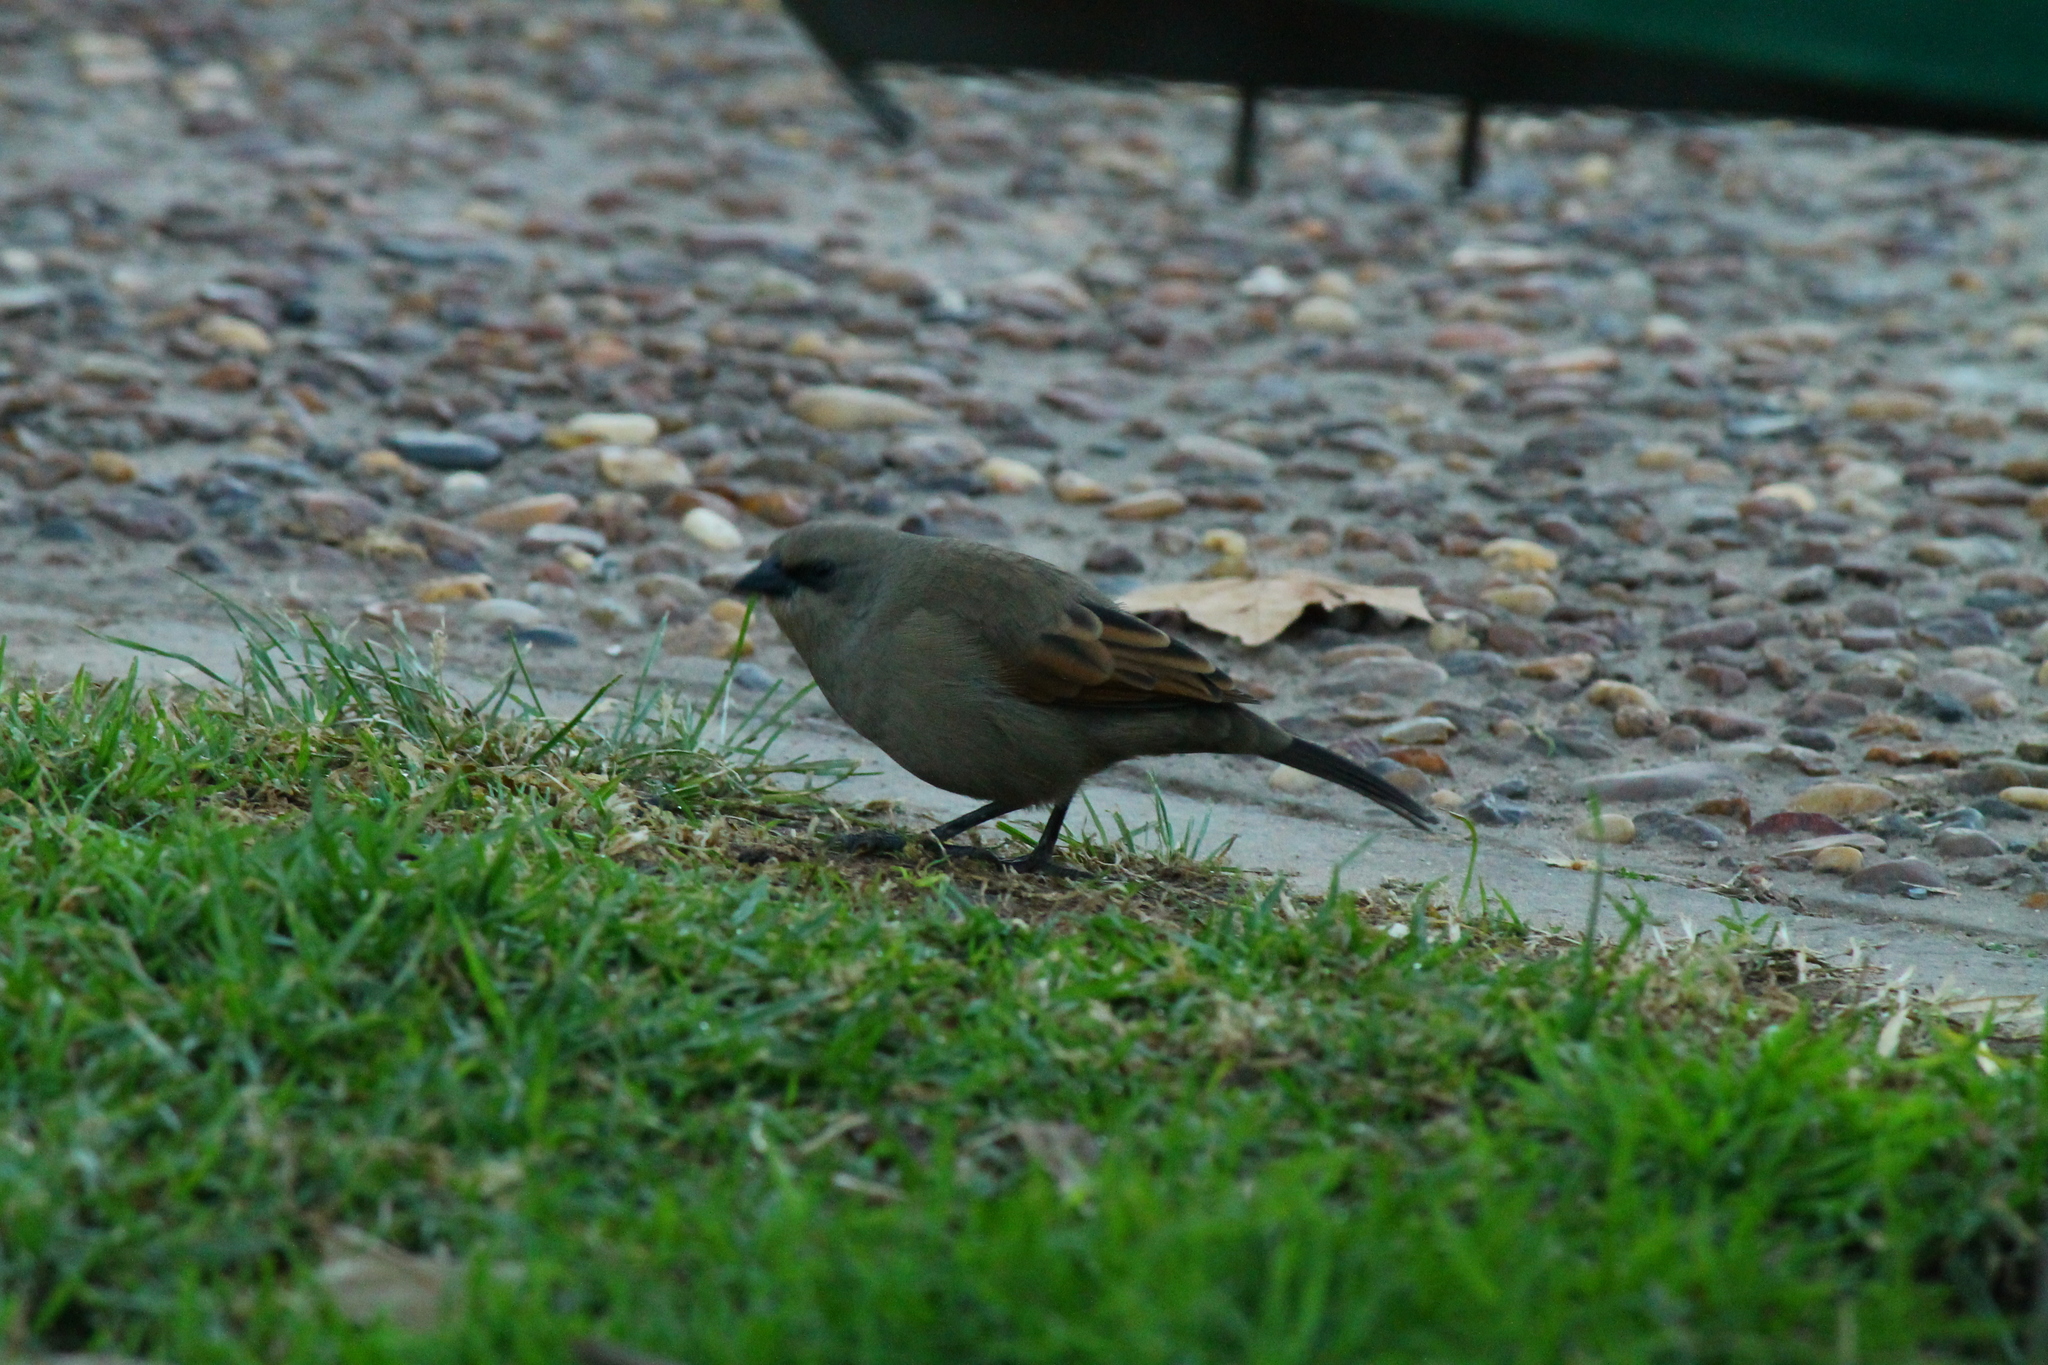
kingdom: Animalia
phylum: Chordata
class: Aves
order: Passeriformes
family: Icteridae
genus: Agelaioides
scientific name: Agelaioides badius
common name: Baywing
